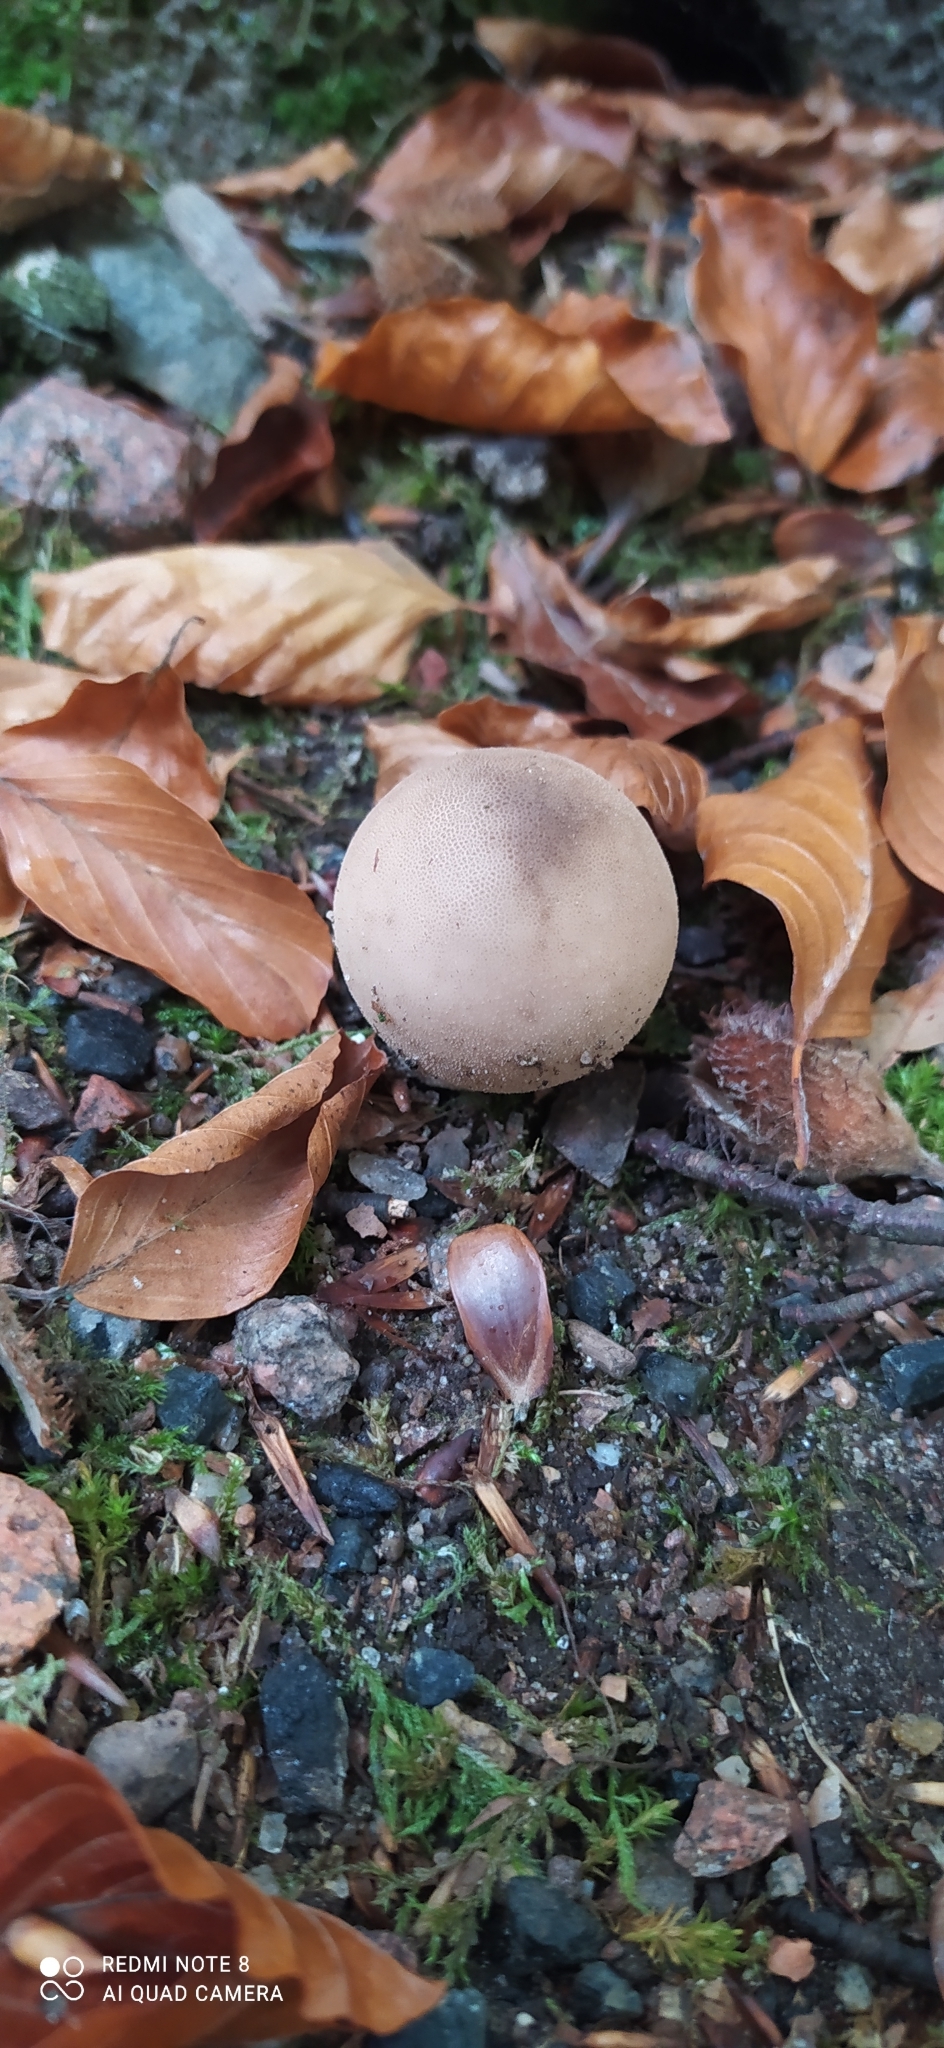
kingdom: Fungi
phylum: Basidiomycota
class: Agaricomycetes
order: Agaricales
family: Lycoperdaceae
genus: Apioperdon
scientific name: Apioperdon pyriforme
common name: Pear-shaped puffball
